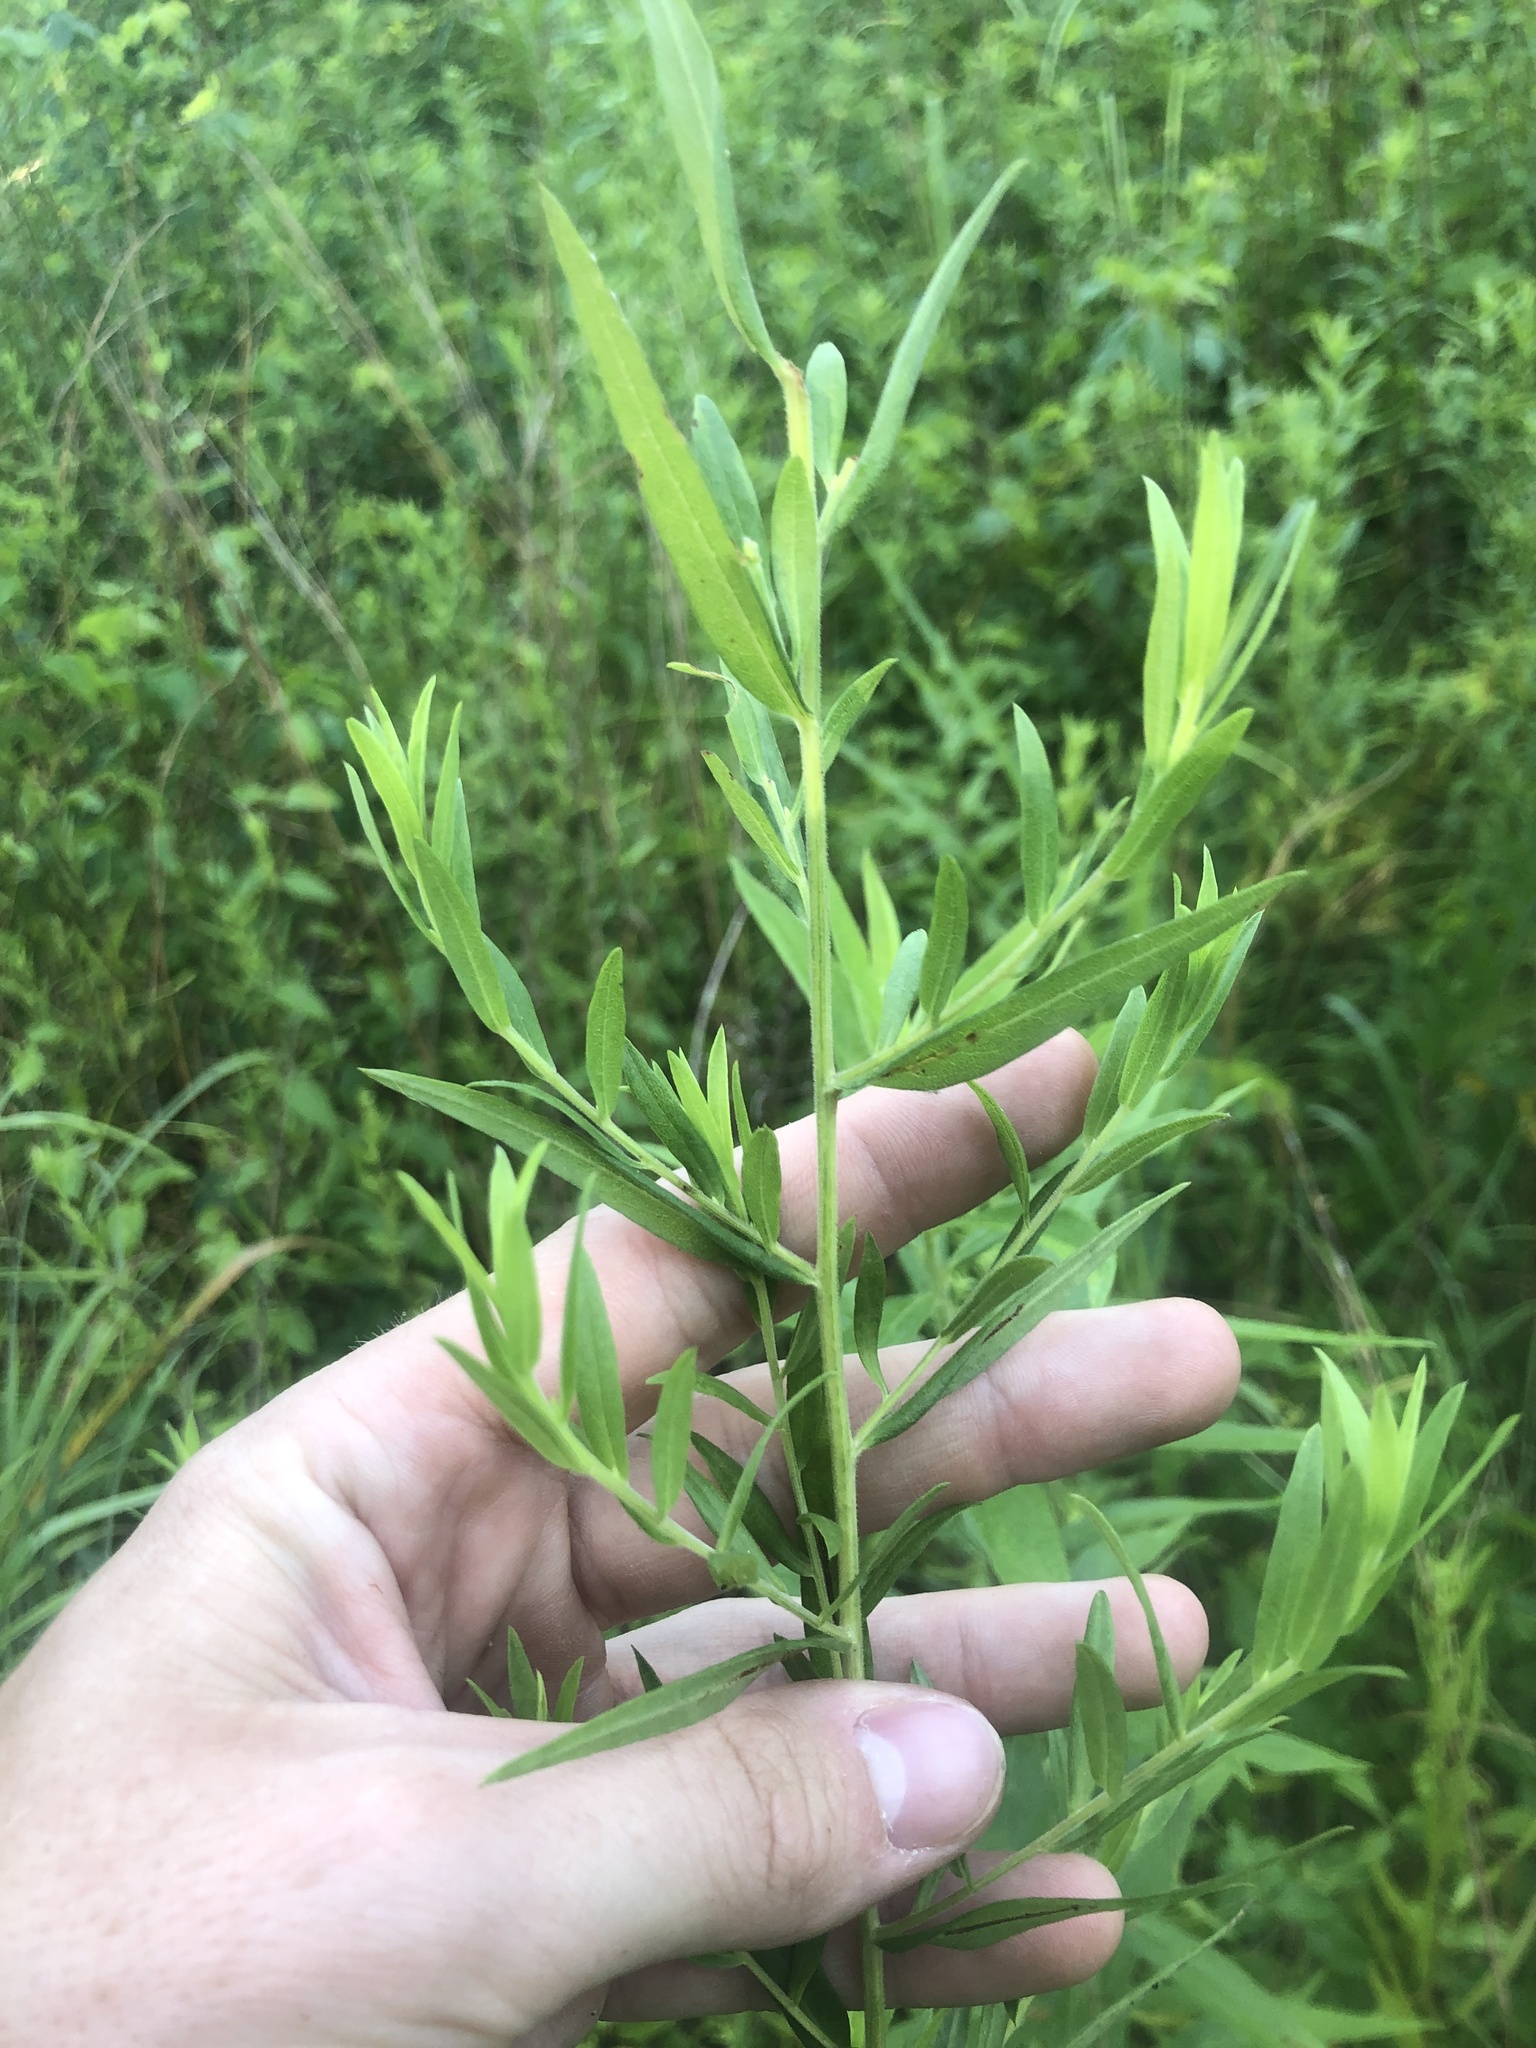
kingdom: Plantae
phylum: Tracheophyta
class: Magnoliopsida
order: Asterales
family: Asteraceae
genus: Symphyotrichum
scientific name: Symphyotrichum praealtum
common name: Willow aster
